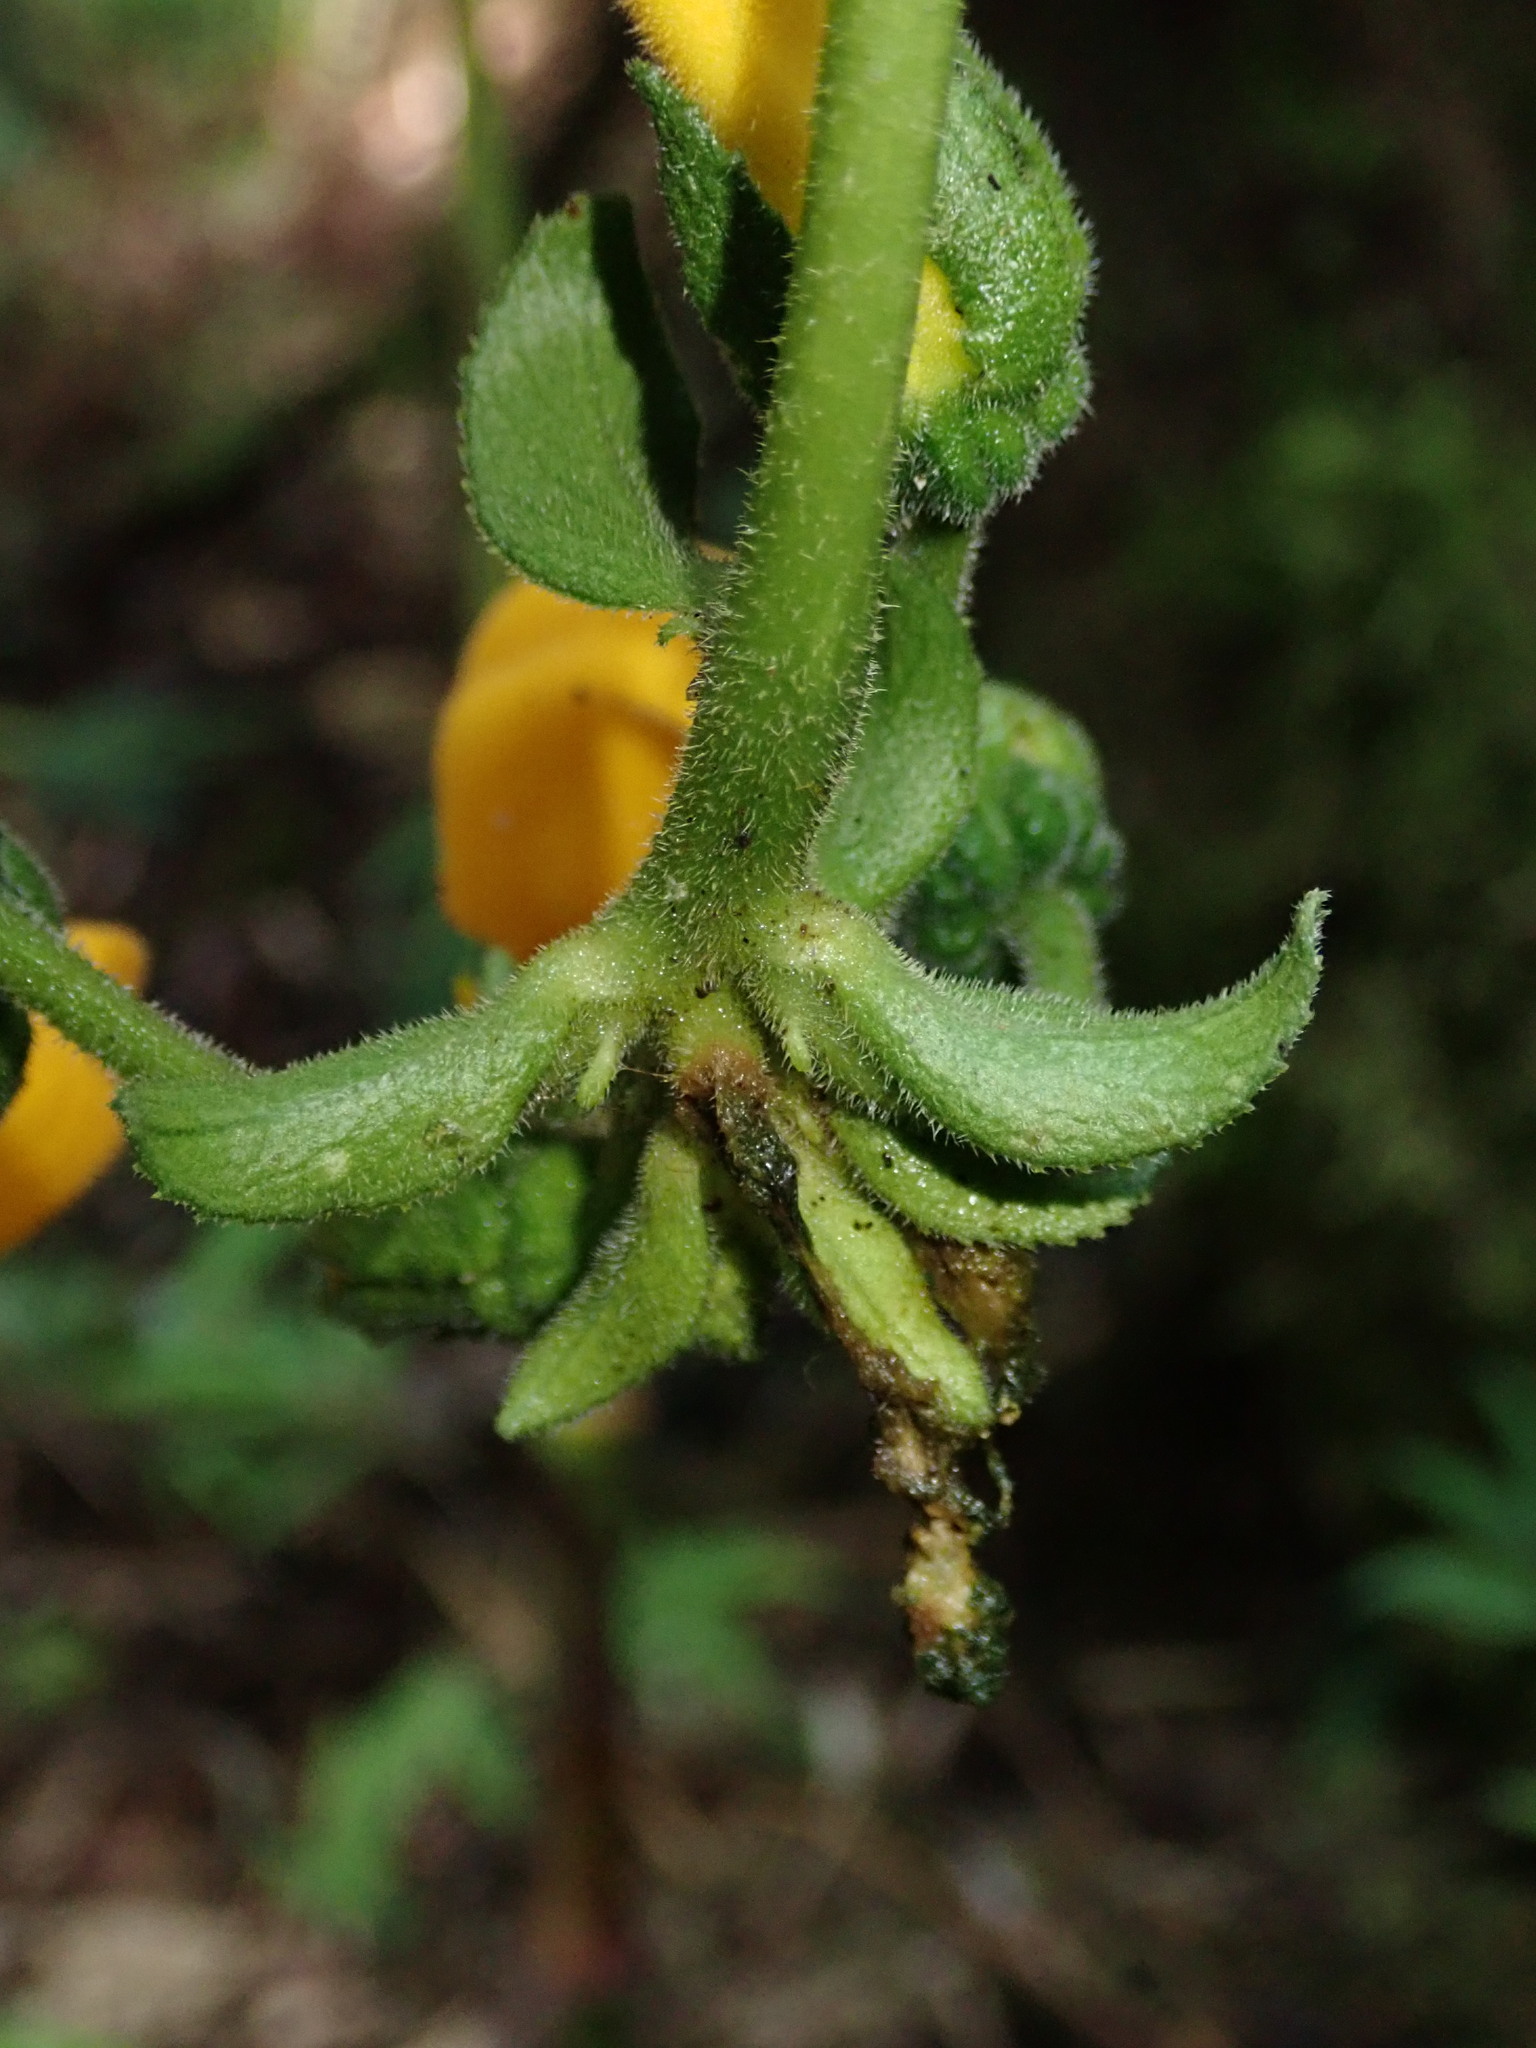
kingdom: Plantae
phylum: Tracheophyta
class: Magnoliopsida
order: Asterales
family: Campanulaceae
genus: Centropogon
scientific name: Centropogon densiflorus
